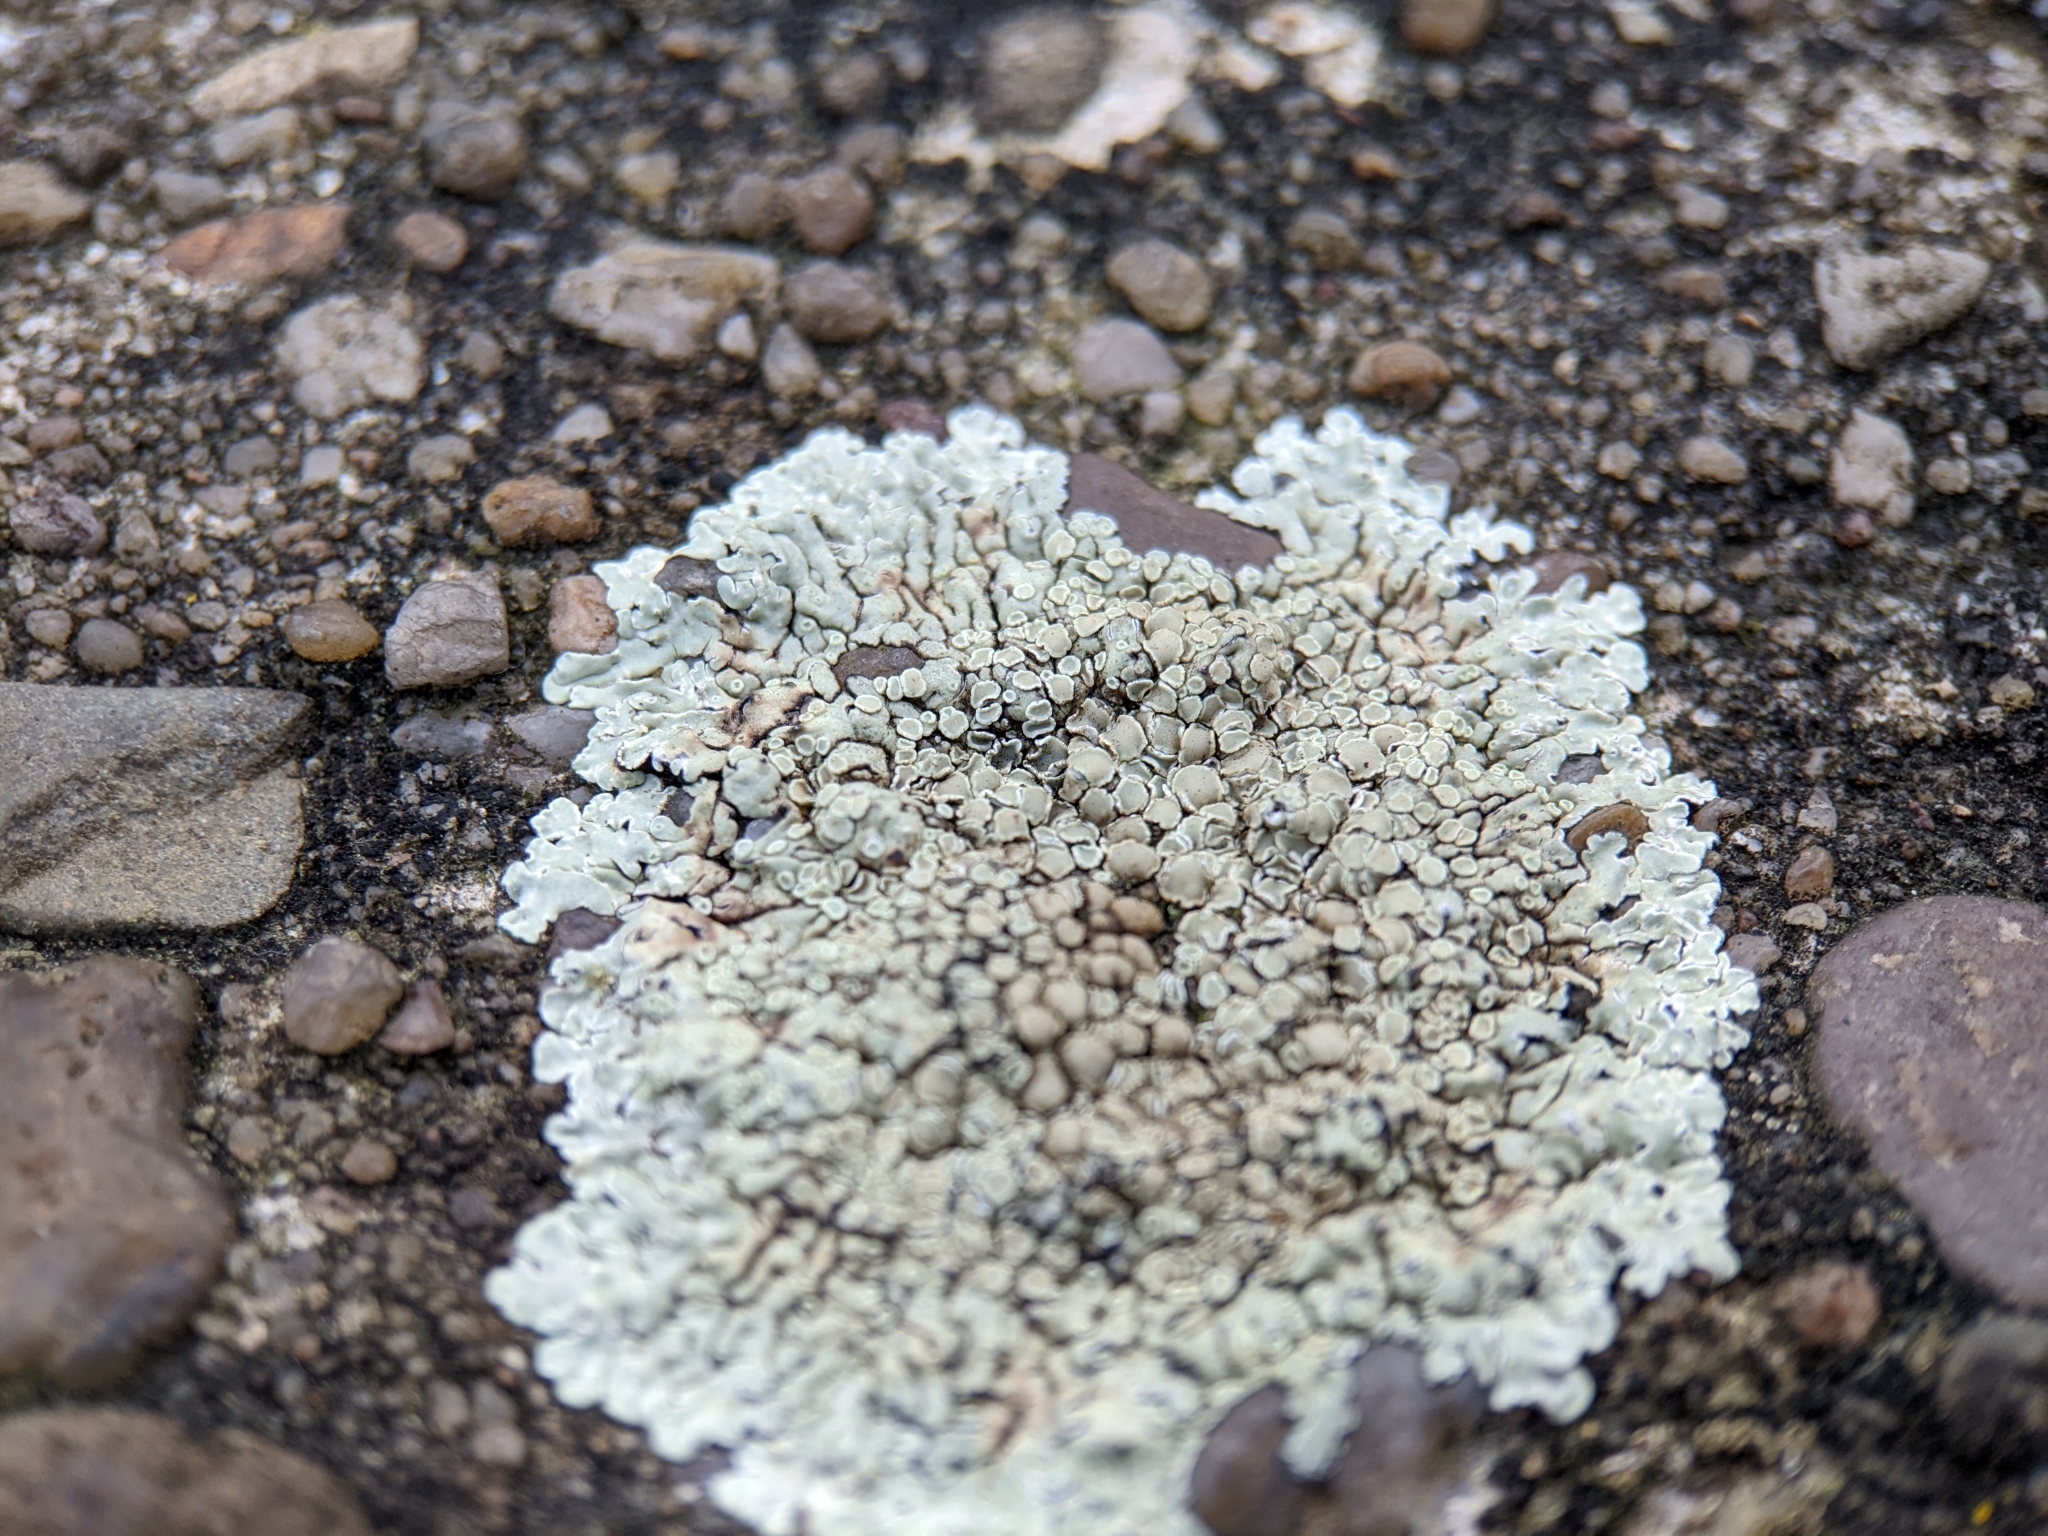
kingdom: Fungi
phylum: Ascomycota
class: Lecanoromycetes
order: Lecanorales
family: Lecanoraceae
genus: Protoparmeliopsis
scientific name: Protoparmeliopsis muralis
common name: Stonewall rim lichen
